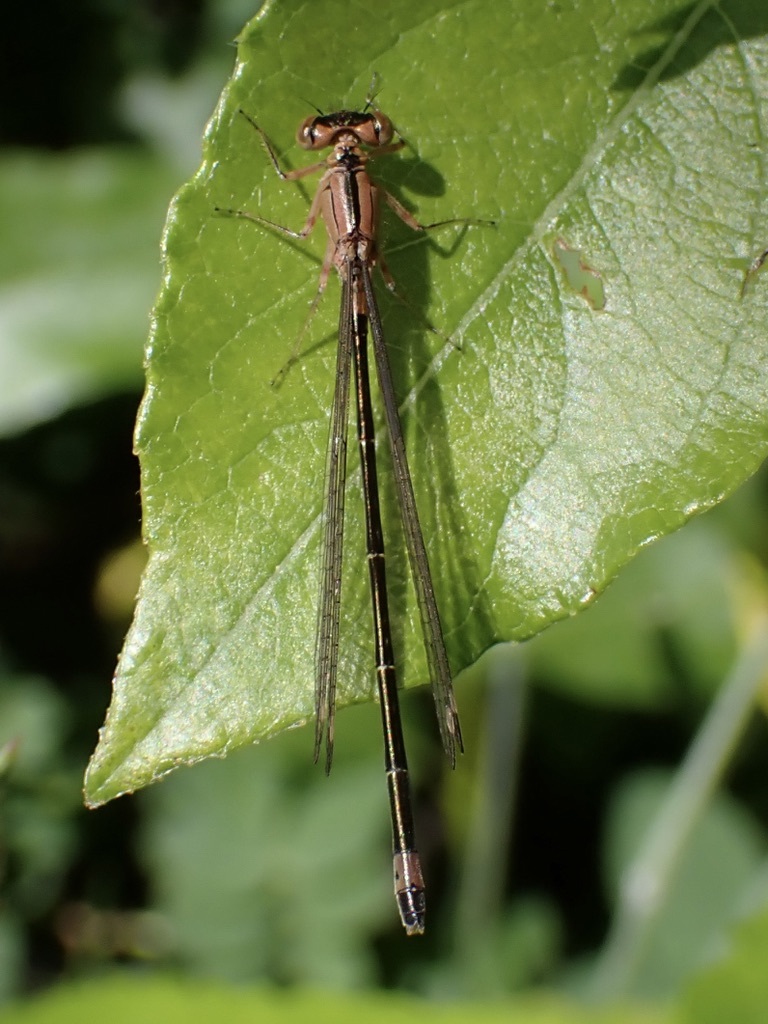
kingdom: Animalia
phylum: Arthropoda
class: Insecta
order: Odonata
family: Coenagrionidae
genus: Ischnura
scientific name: Ischnura cervula
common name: Pacific forktail
